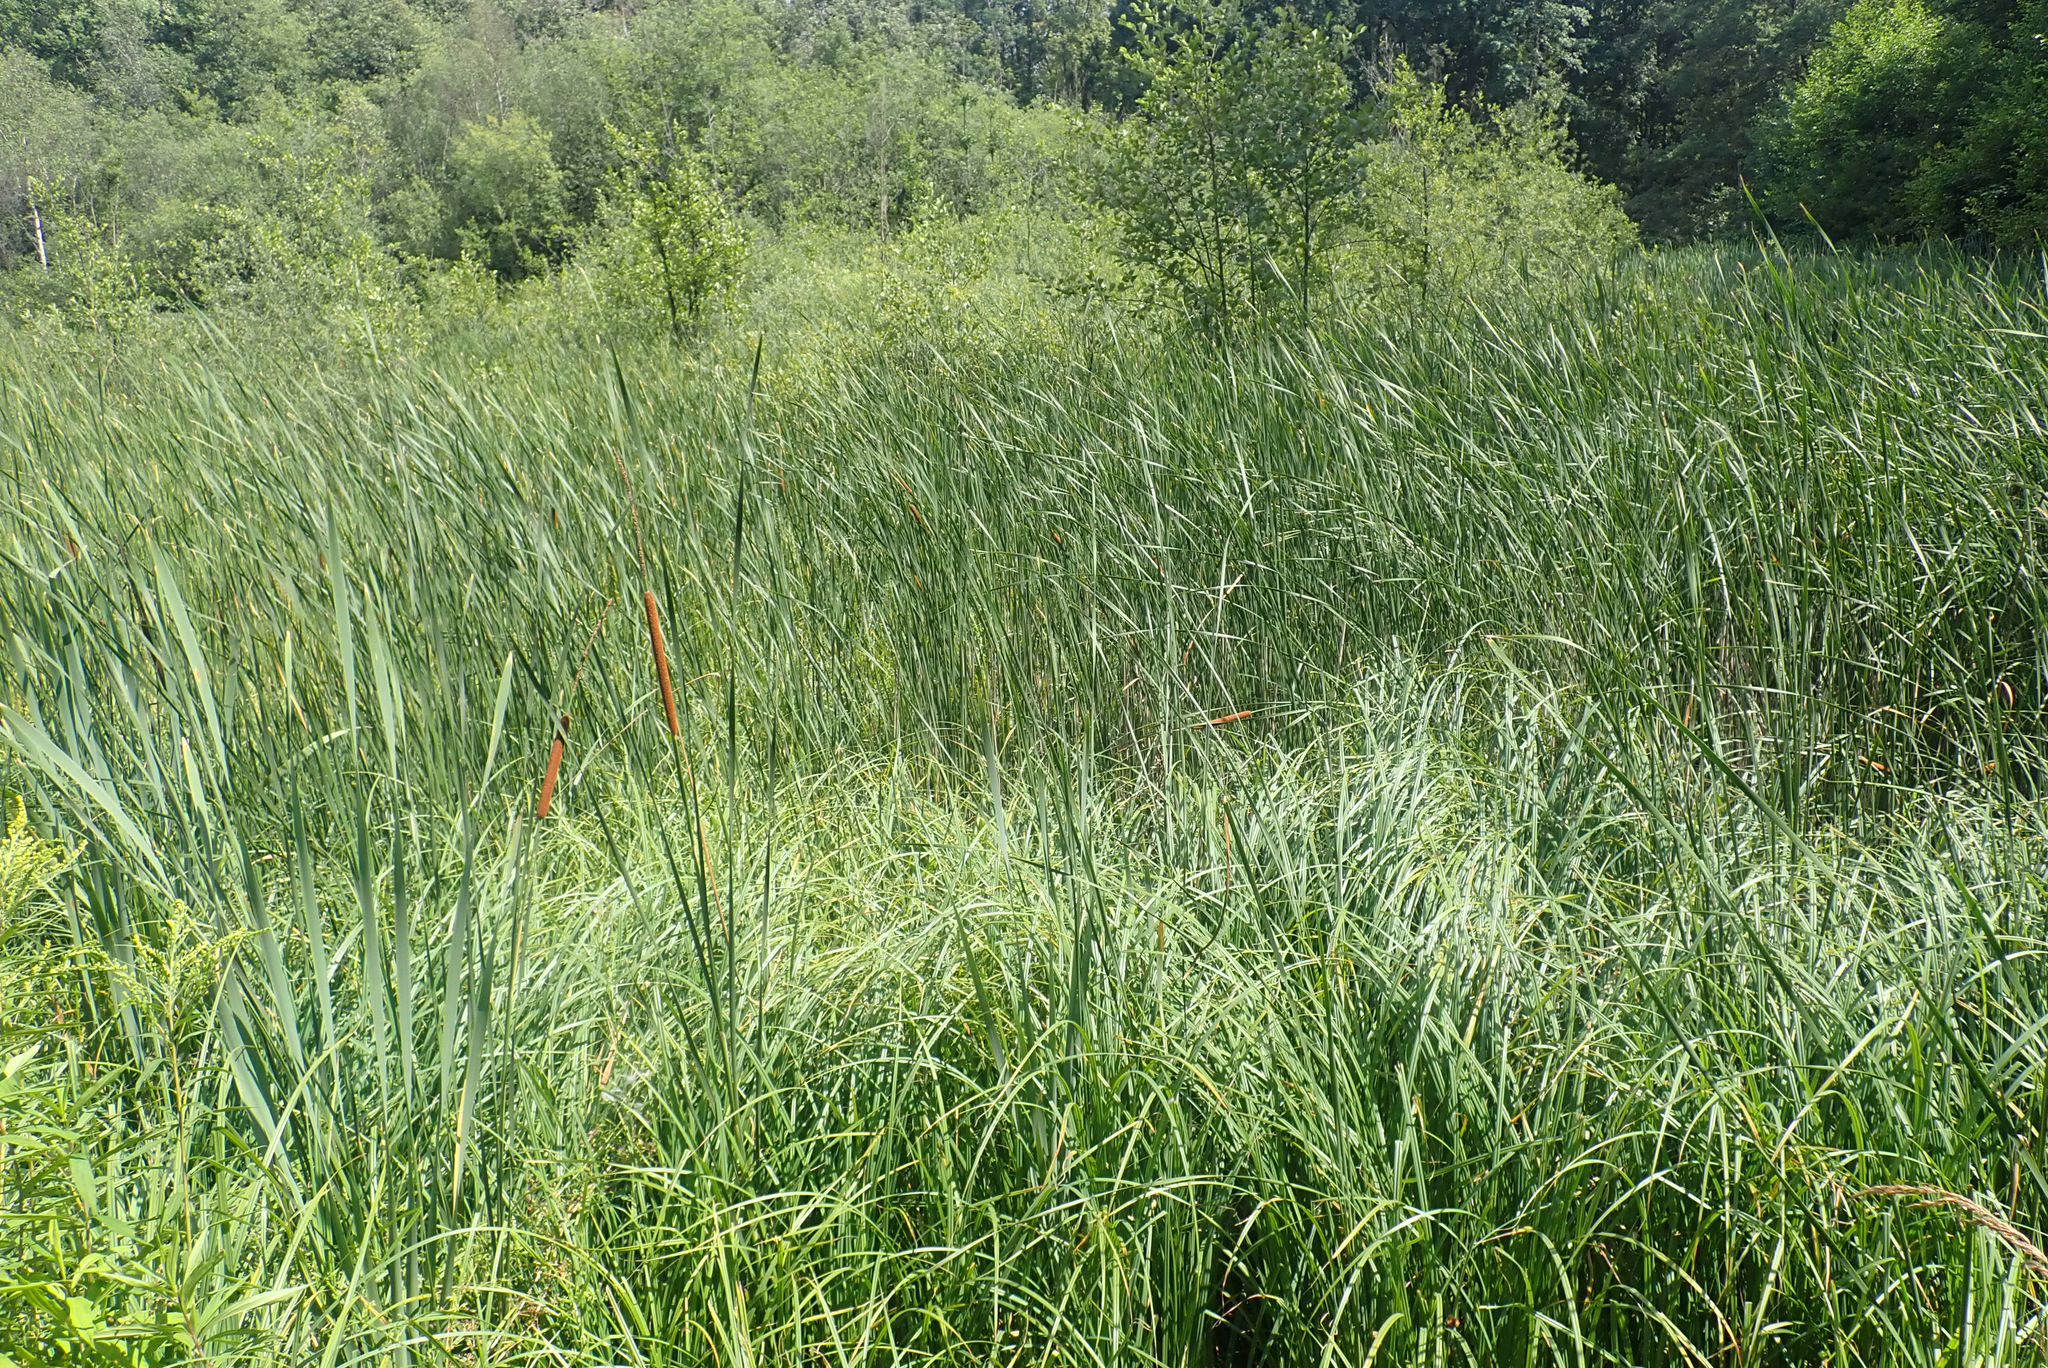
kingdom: Plantae
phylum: Tracheophyta
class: Liliopsida
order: Poales
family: Typhaceae
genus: Typha
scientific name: Typha angustifolia
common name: Lesser bulrush
